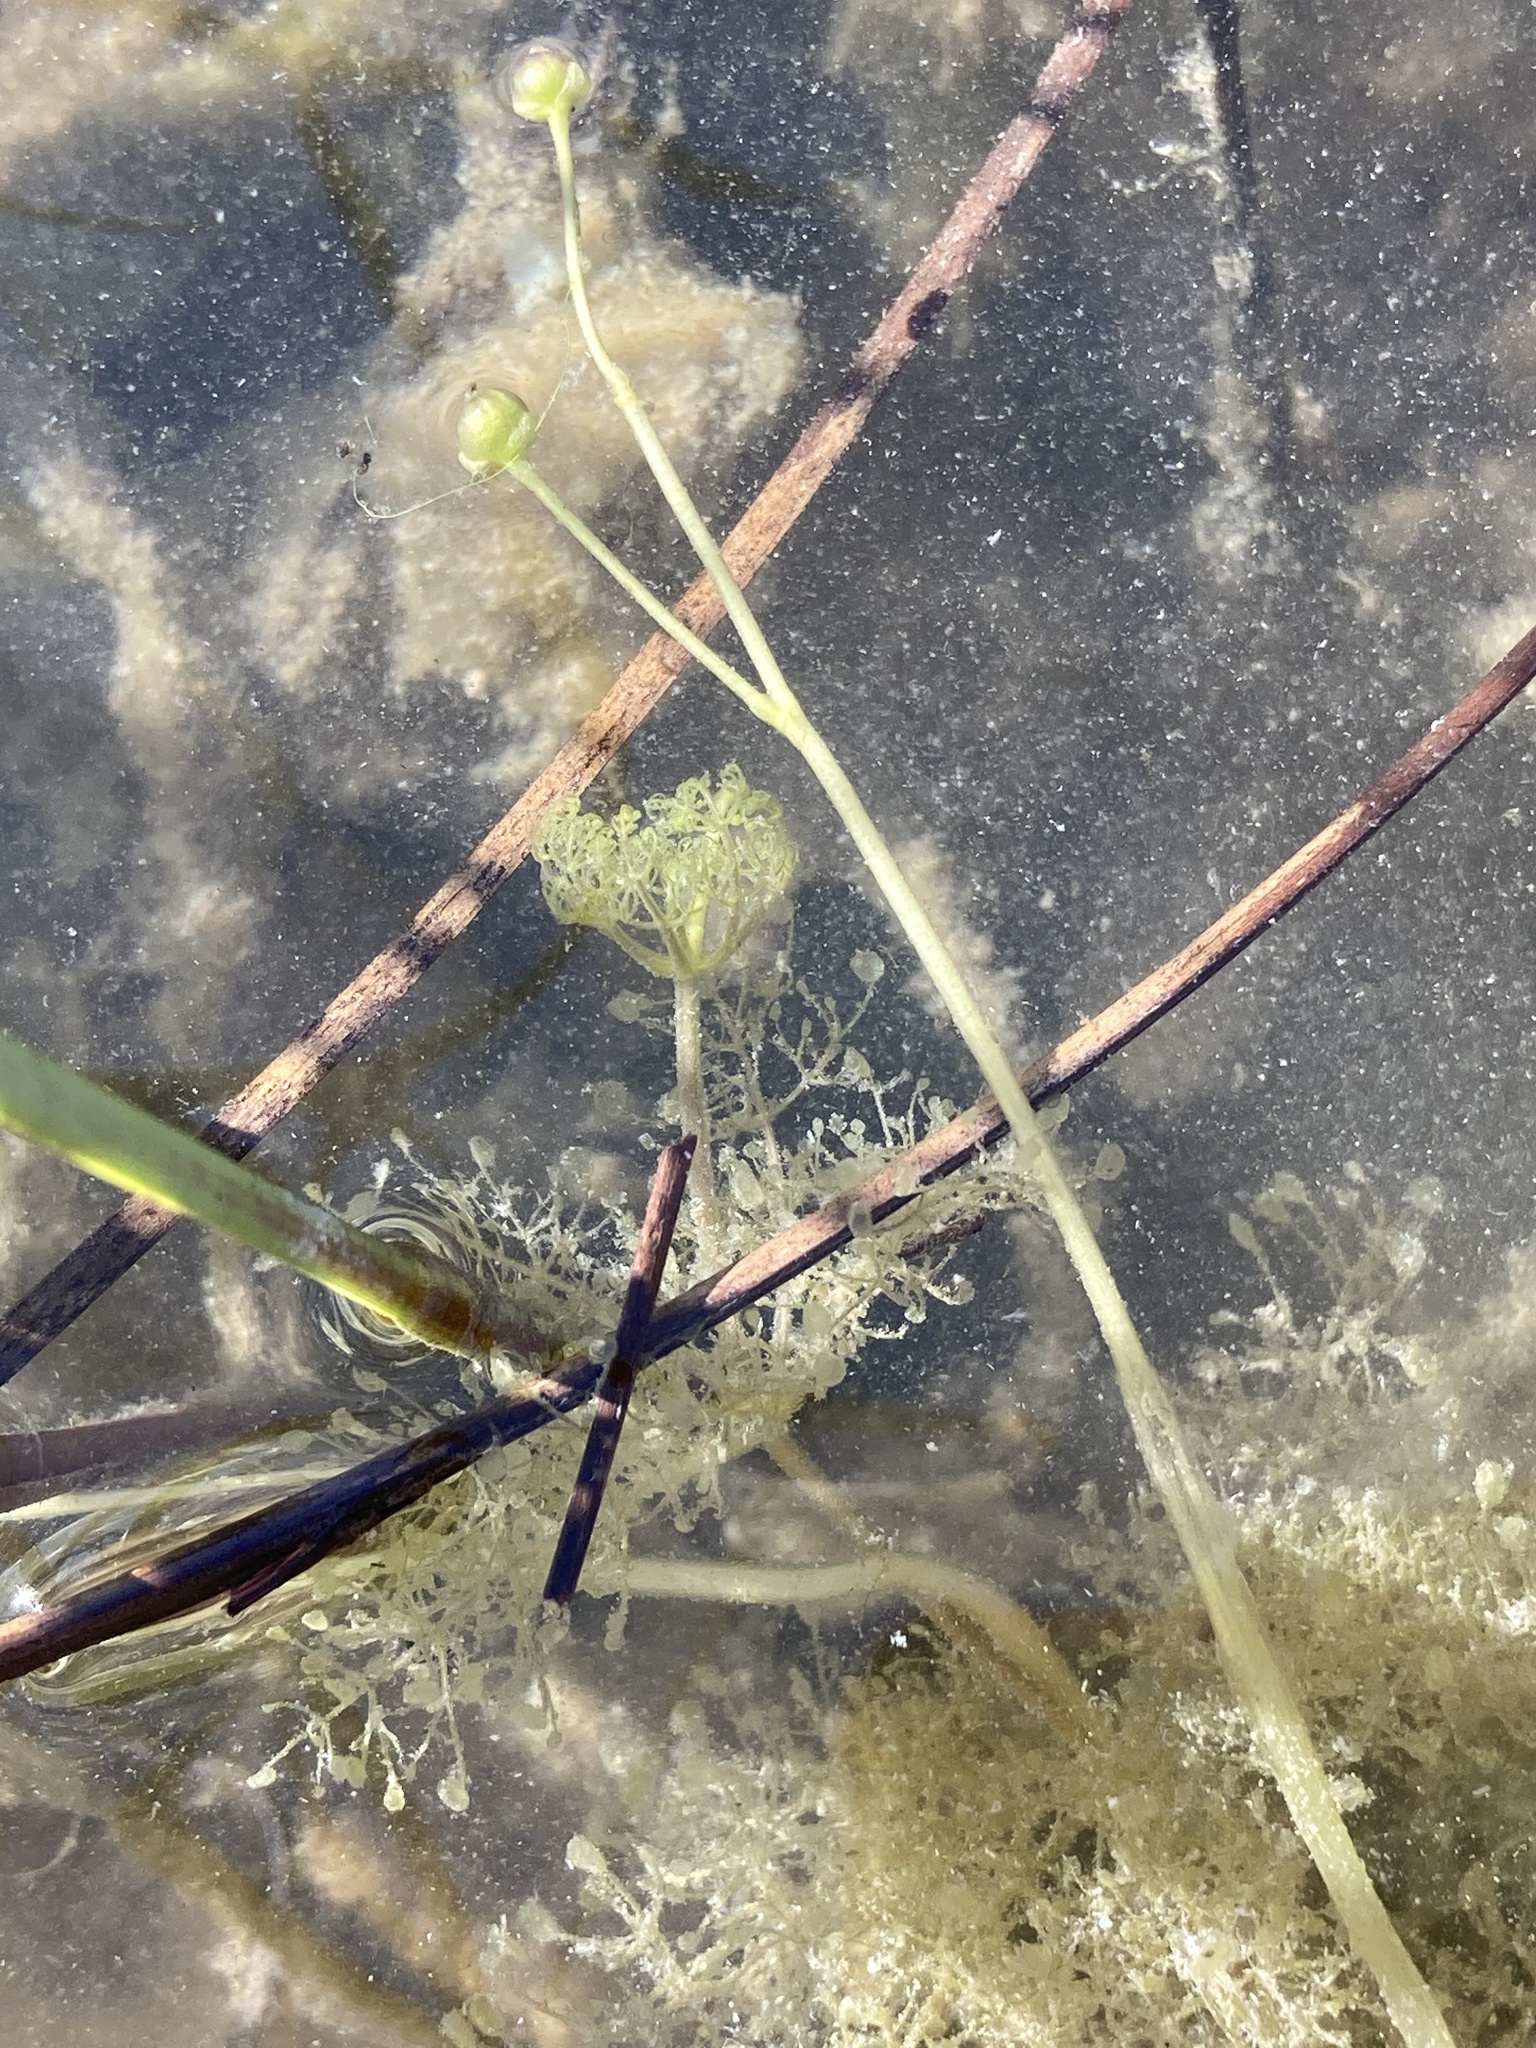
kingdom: Plantae
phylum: Tracheophyta
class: Magnoliopsida
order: Lamiales
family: Lentibulariaceae
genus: Utricularia
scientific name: Utricularia purpurea
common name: Eastern purple bladderwort
